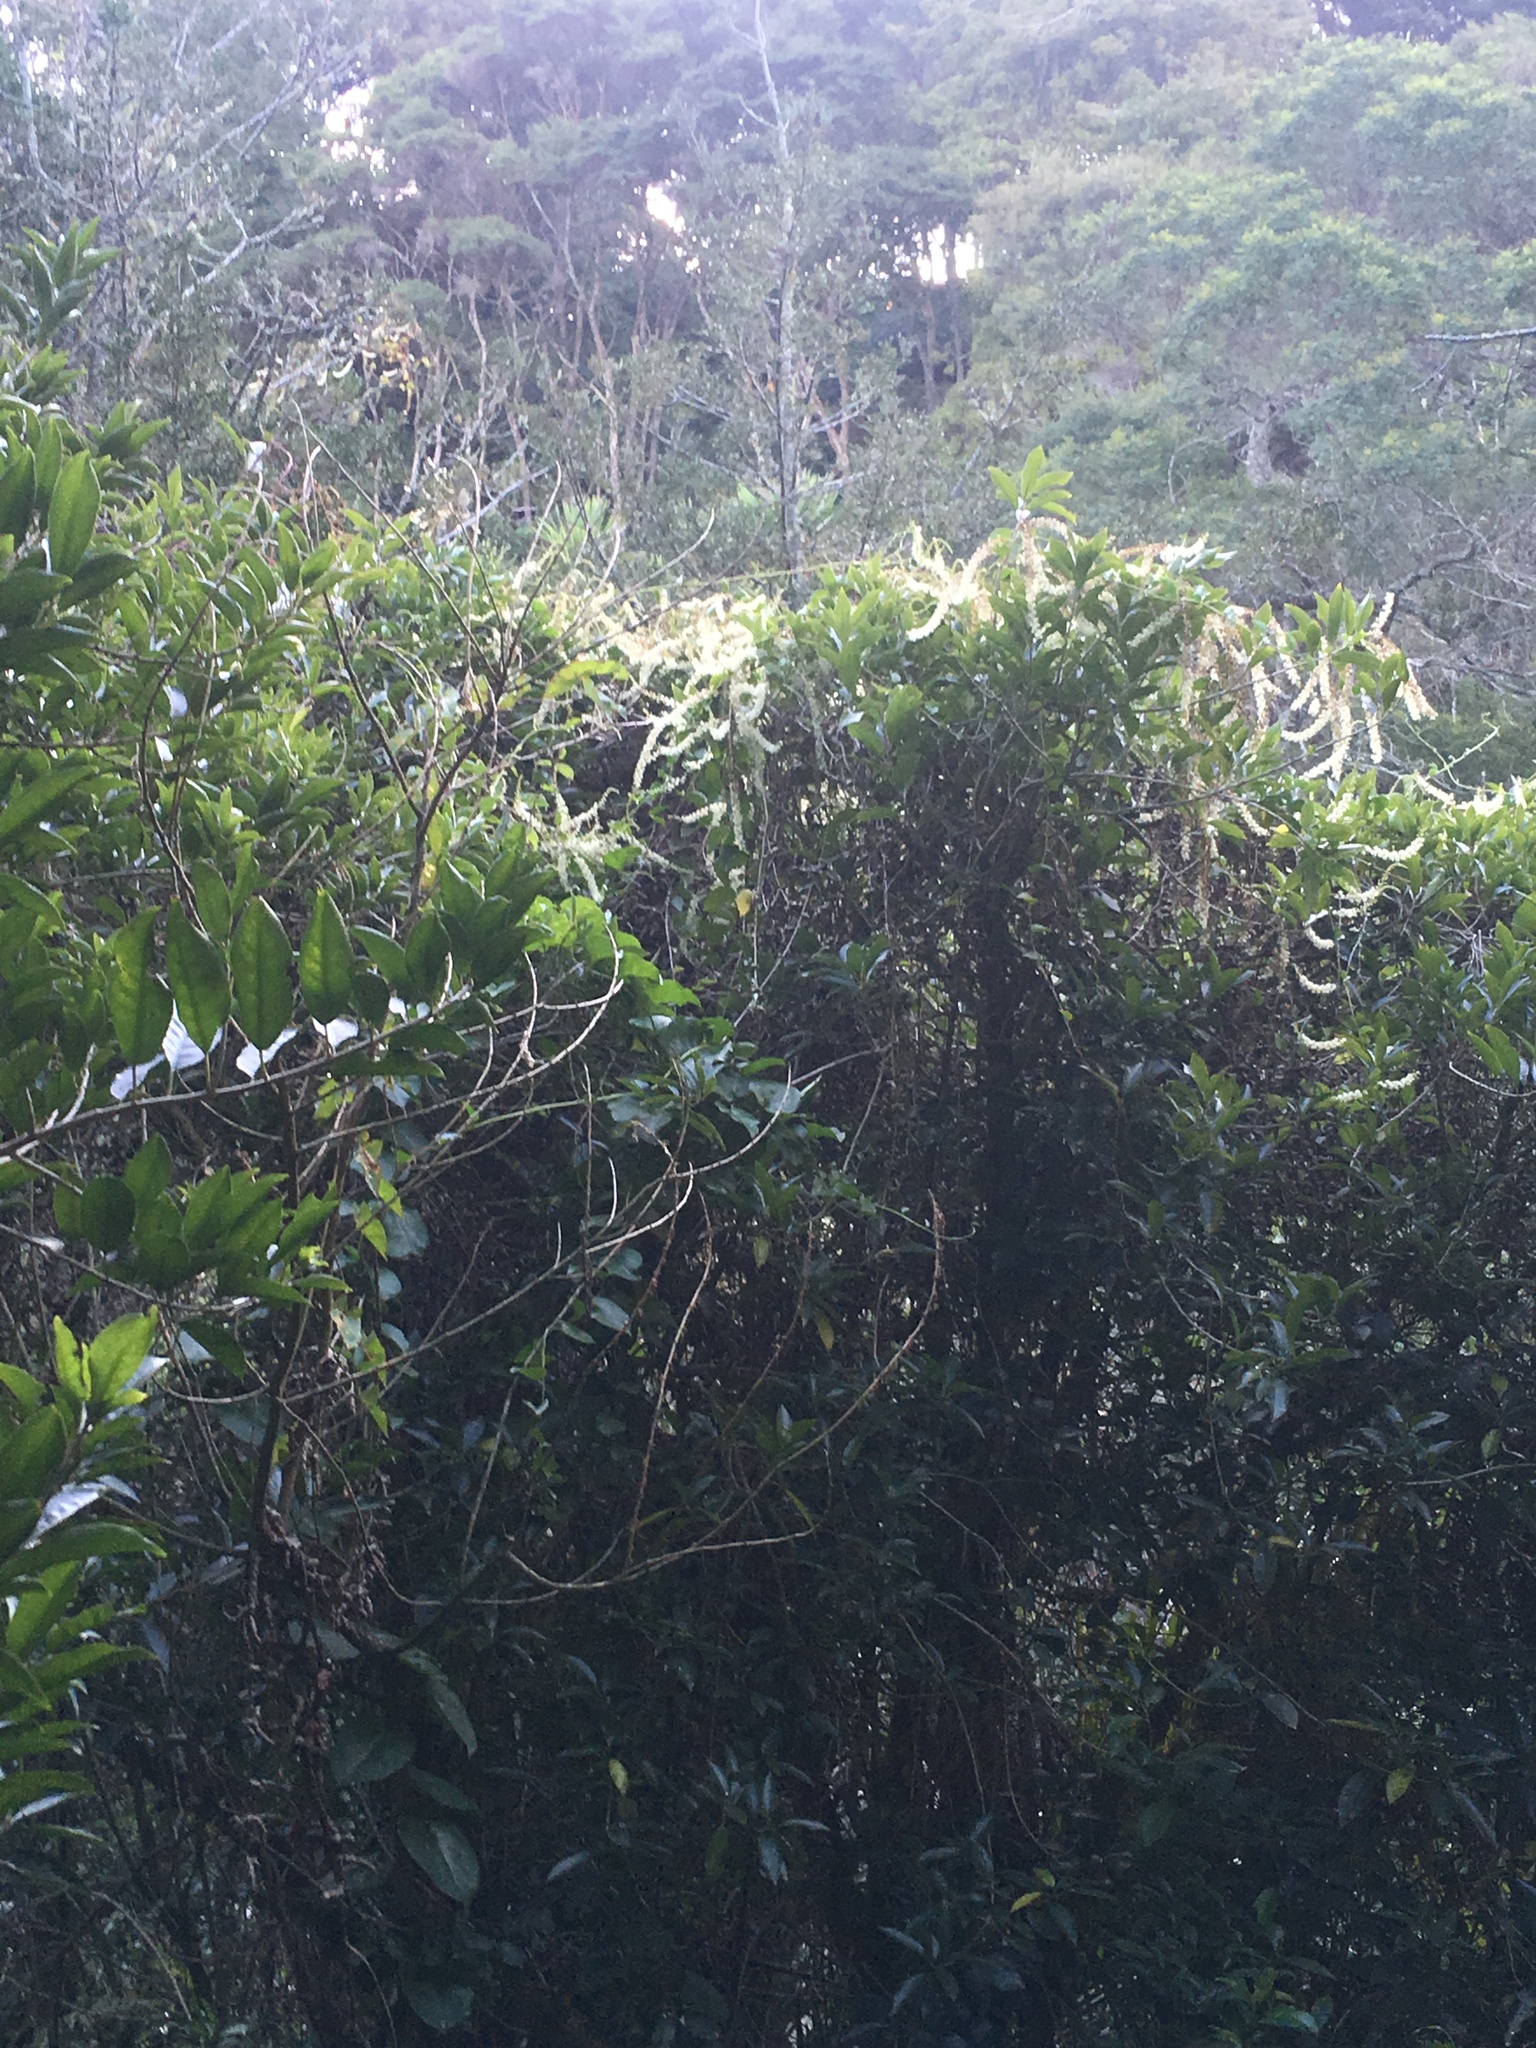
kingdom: Plantae
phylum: Tracheophyta
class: Magnoliopsida
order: Caryophyllales
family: Basellaceae
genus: Anredera
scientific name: Anredera cordifolia
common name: Heartleaf madeiravine
